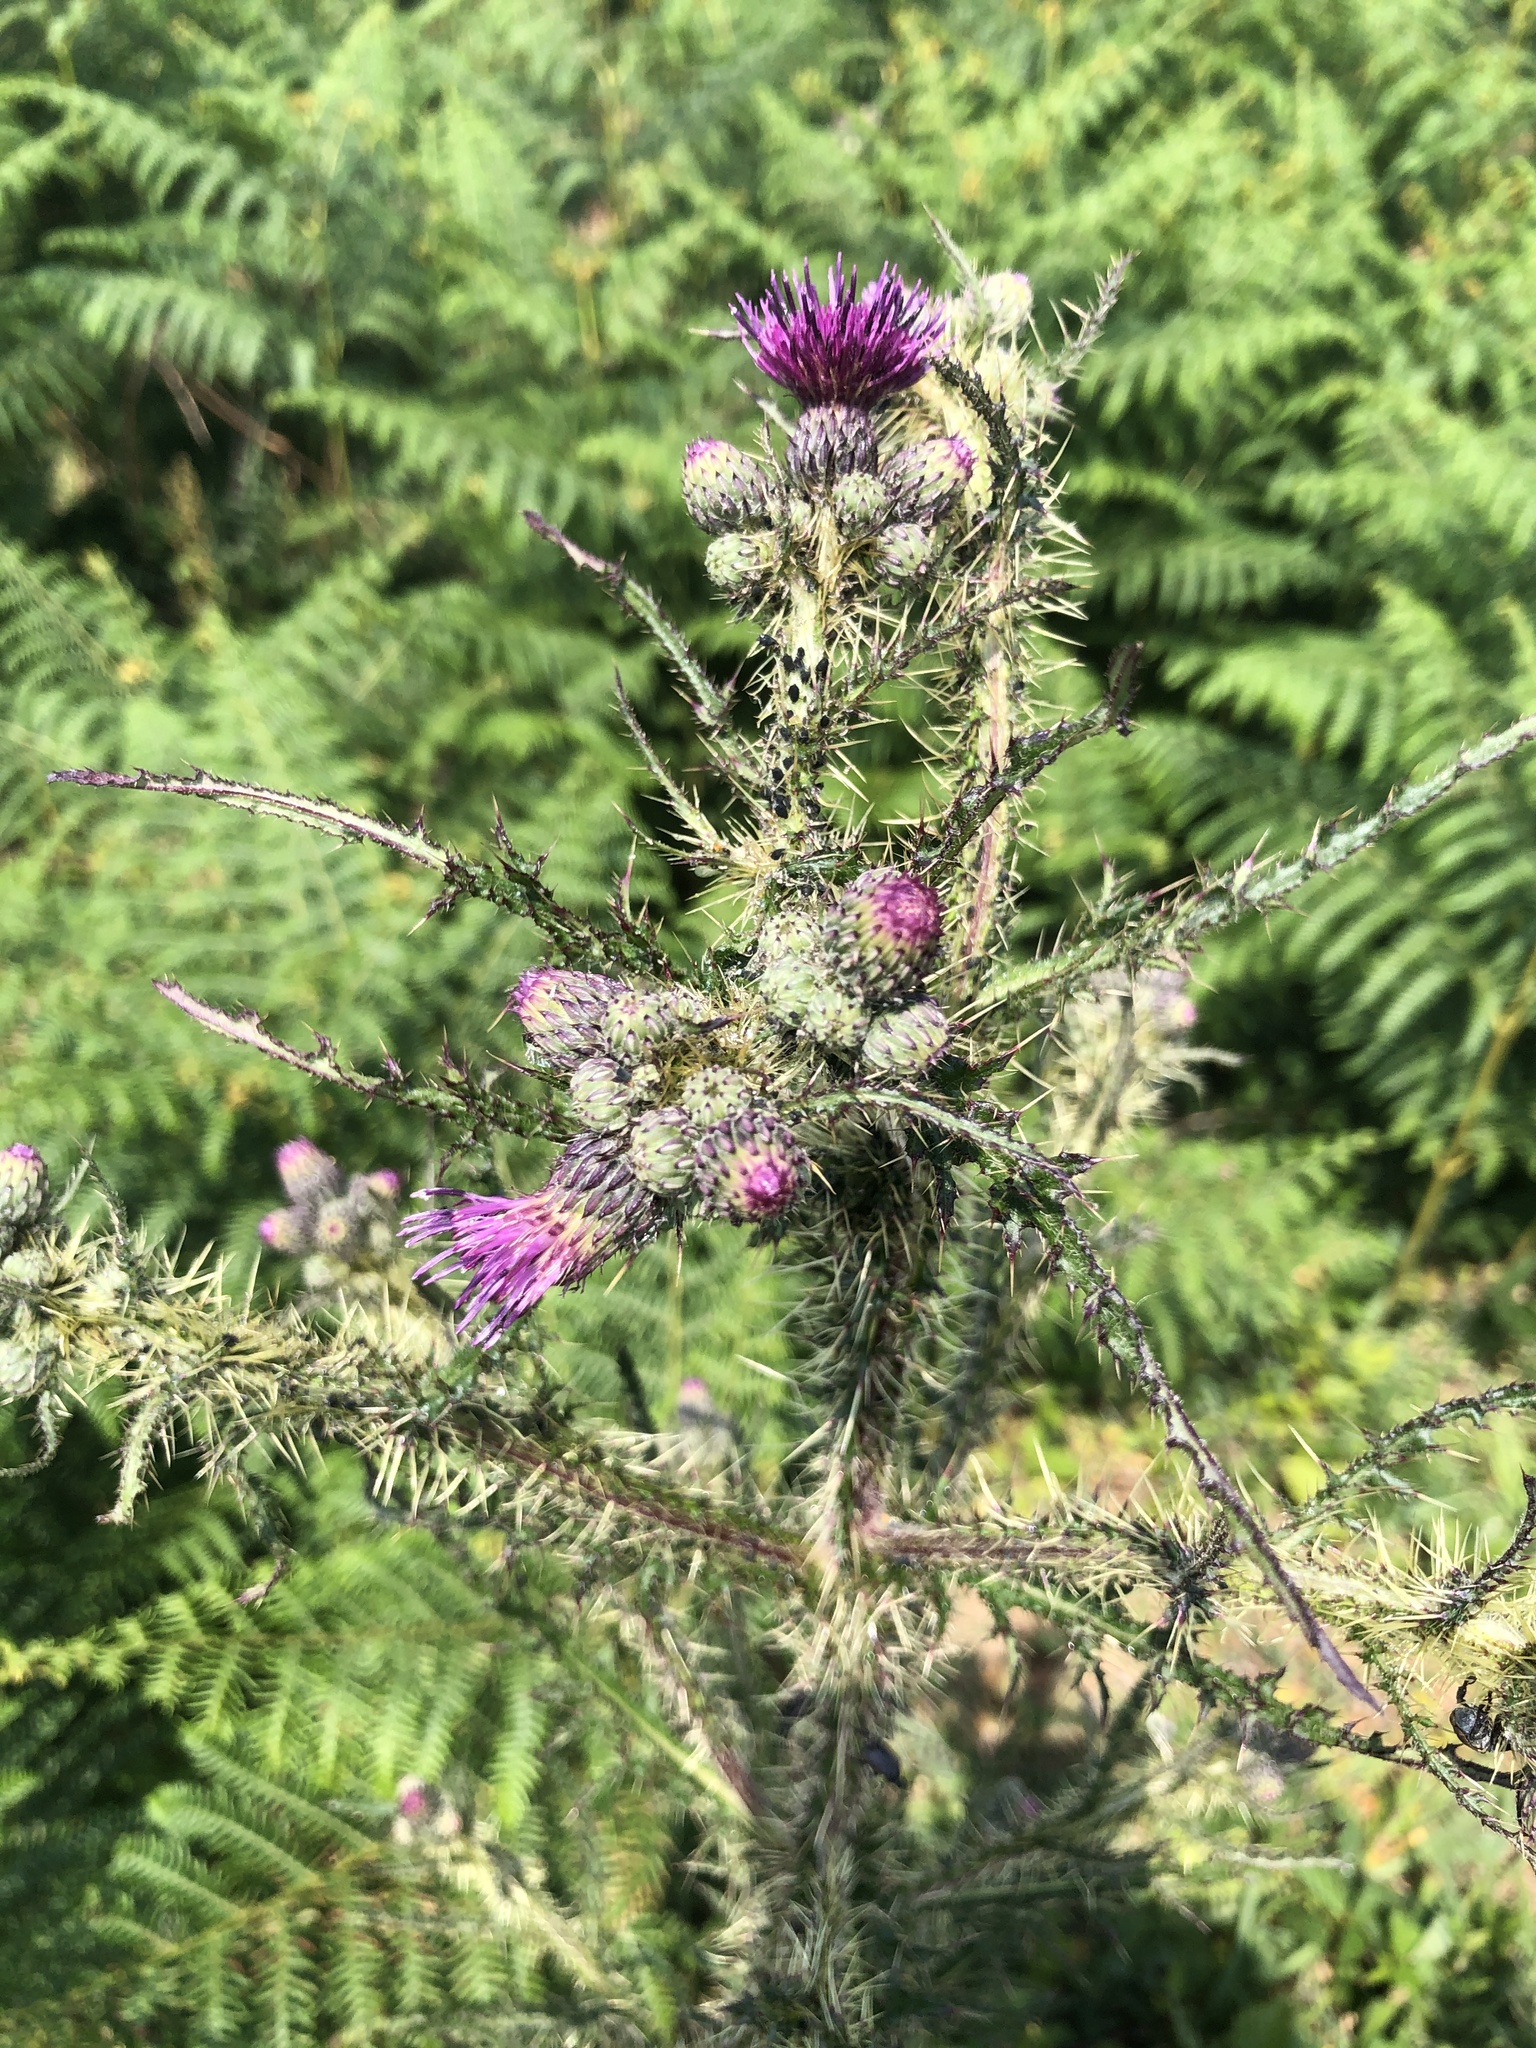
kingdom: Plantae
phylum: Tracheophyta
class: Magnoliopsida
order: Asterales
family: Asteraceae
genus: Cirsium
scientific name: Cirsium palustre
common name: Marsh thistle
